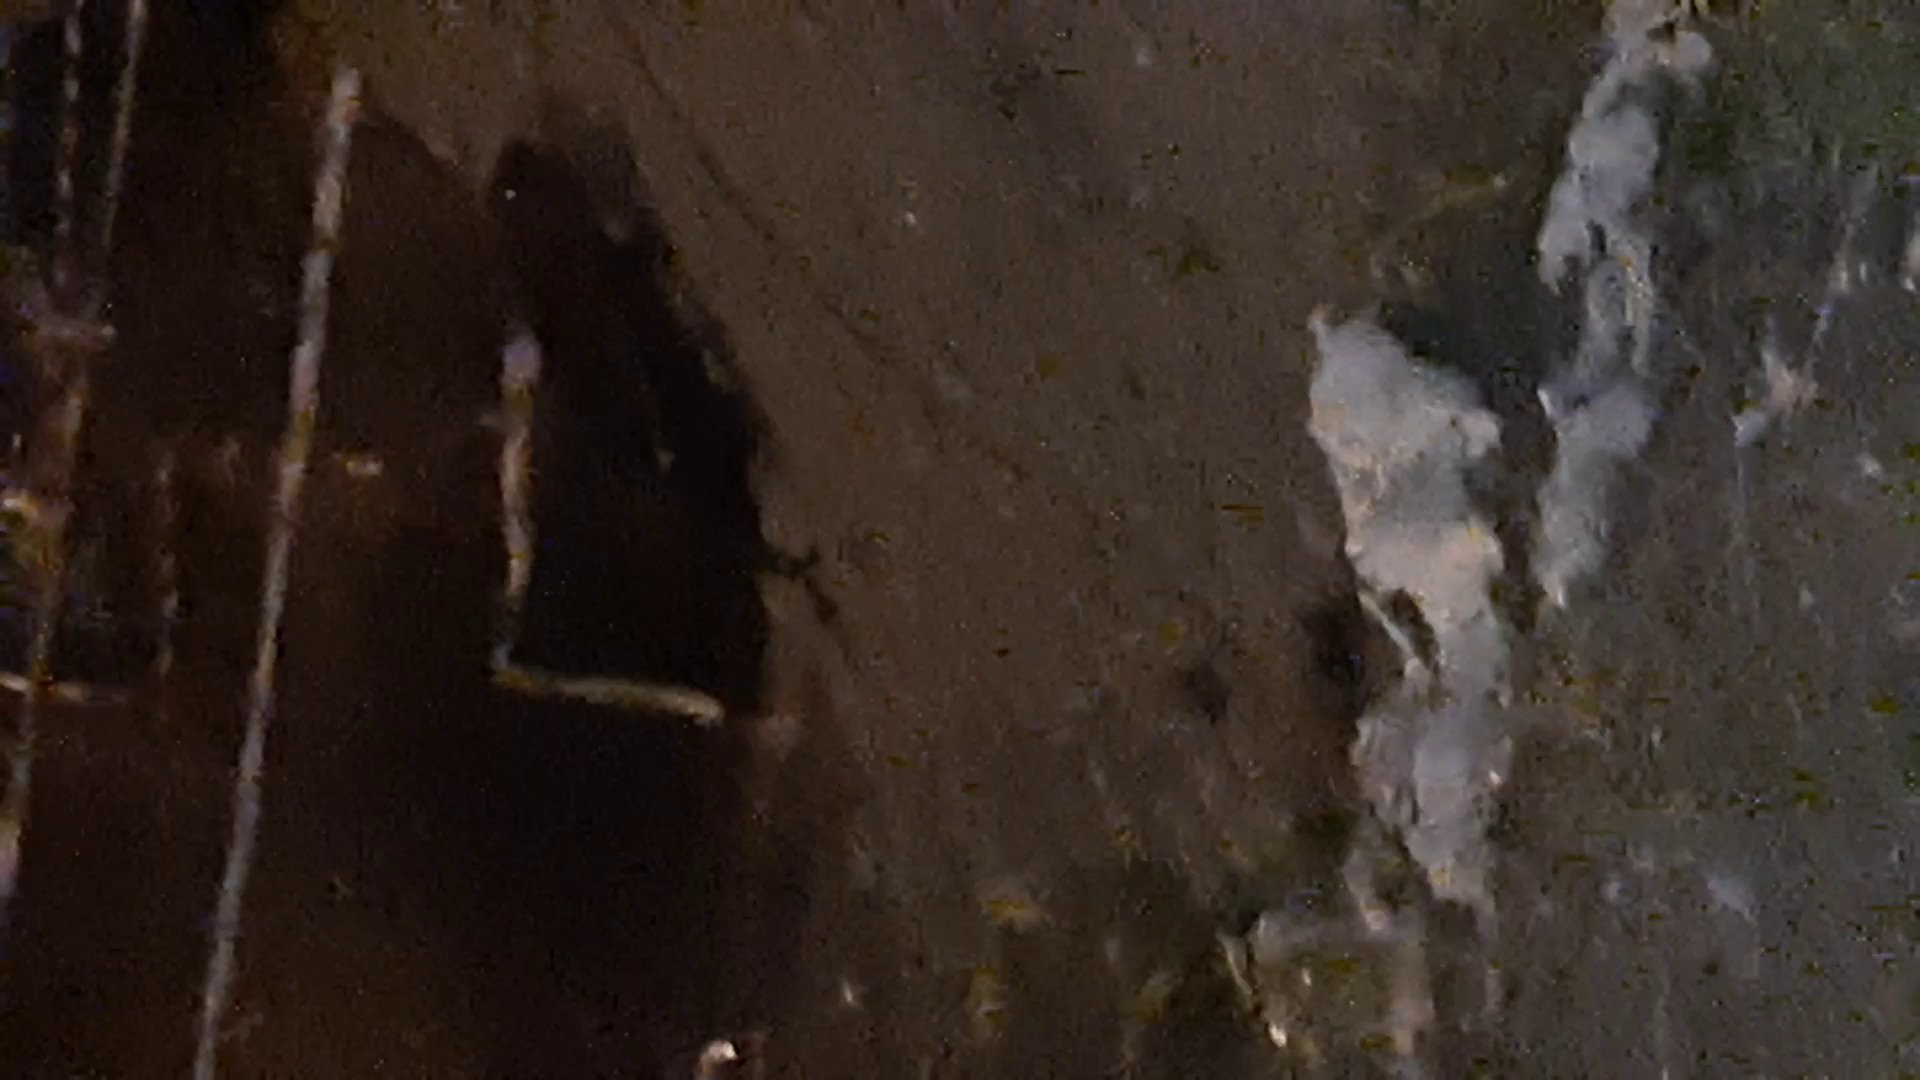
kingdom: Animalia
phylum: Chordata
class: Mammalia
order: Rodentia
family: Myocastoridae
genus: Myocastor
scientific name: Myocastor coypus
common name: Coypu
